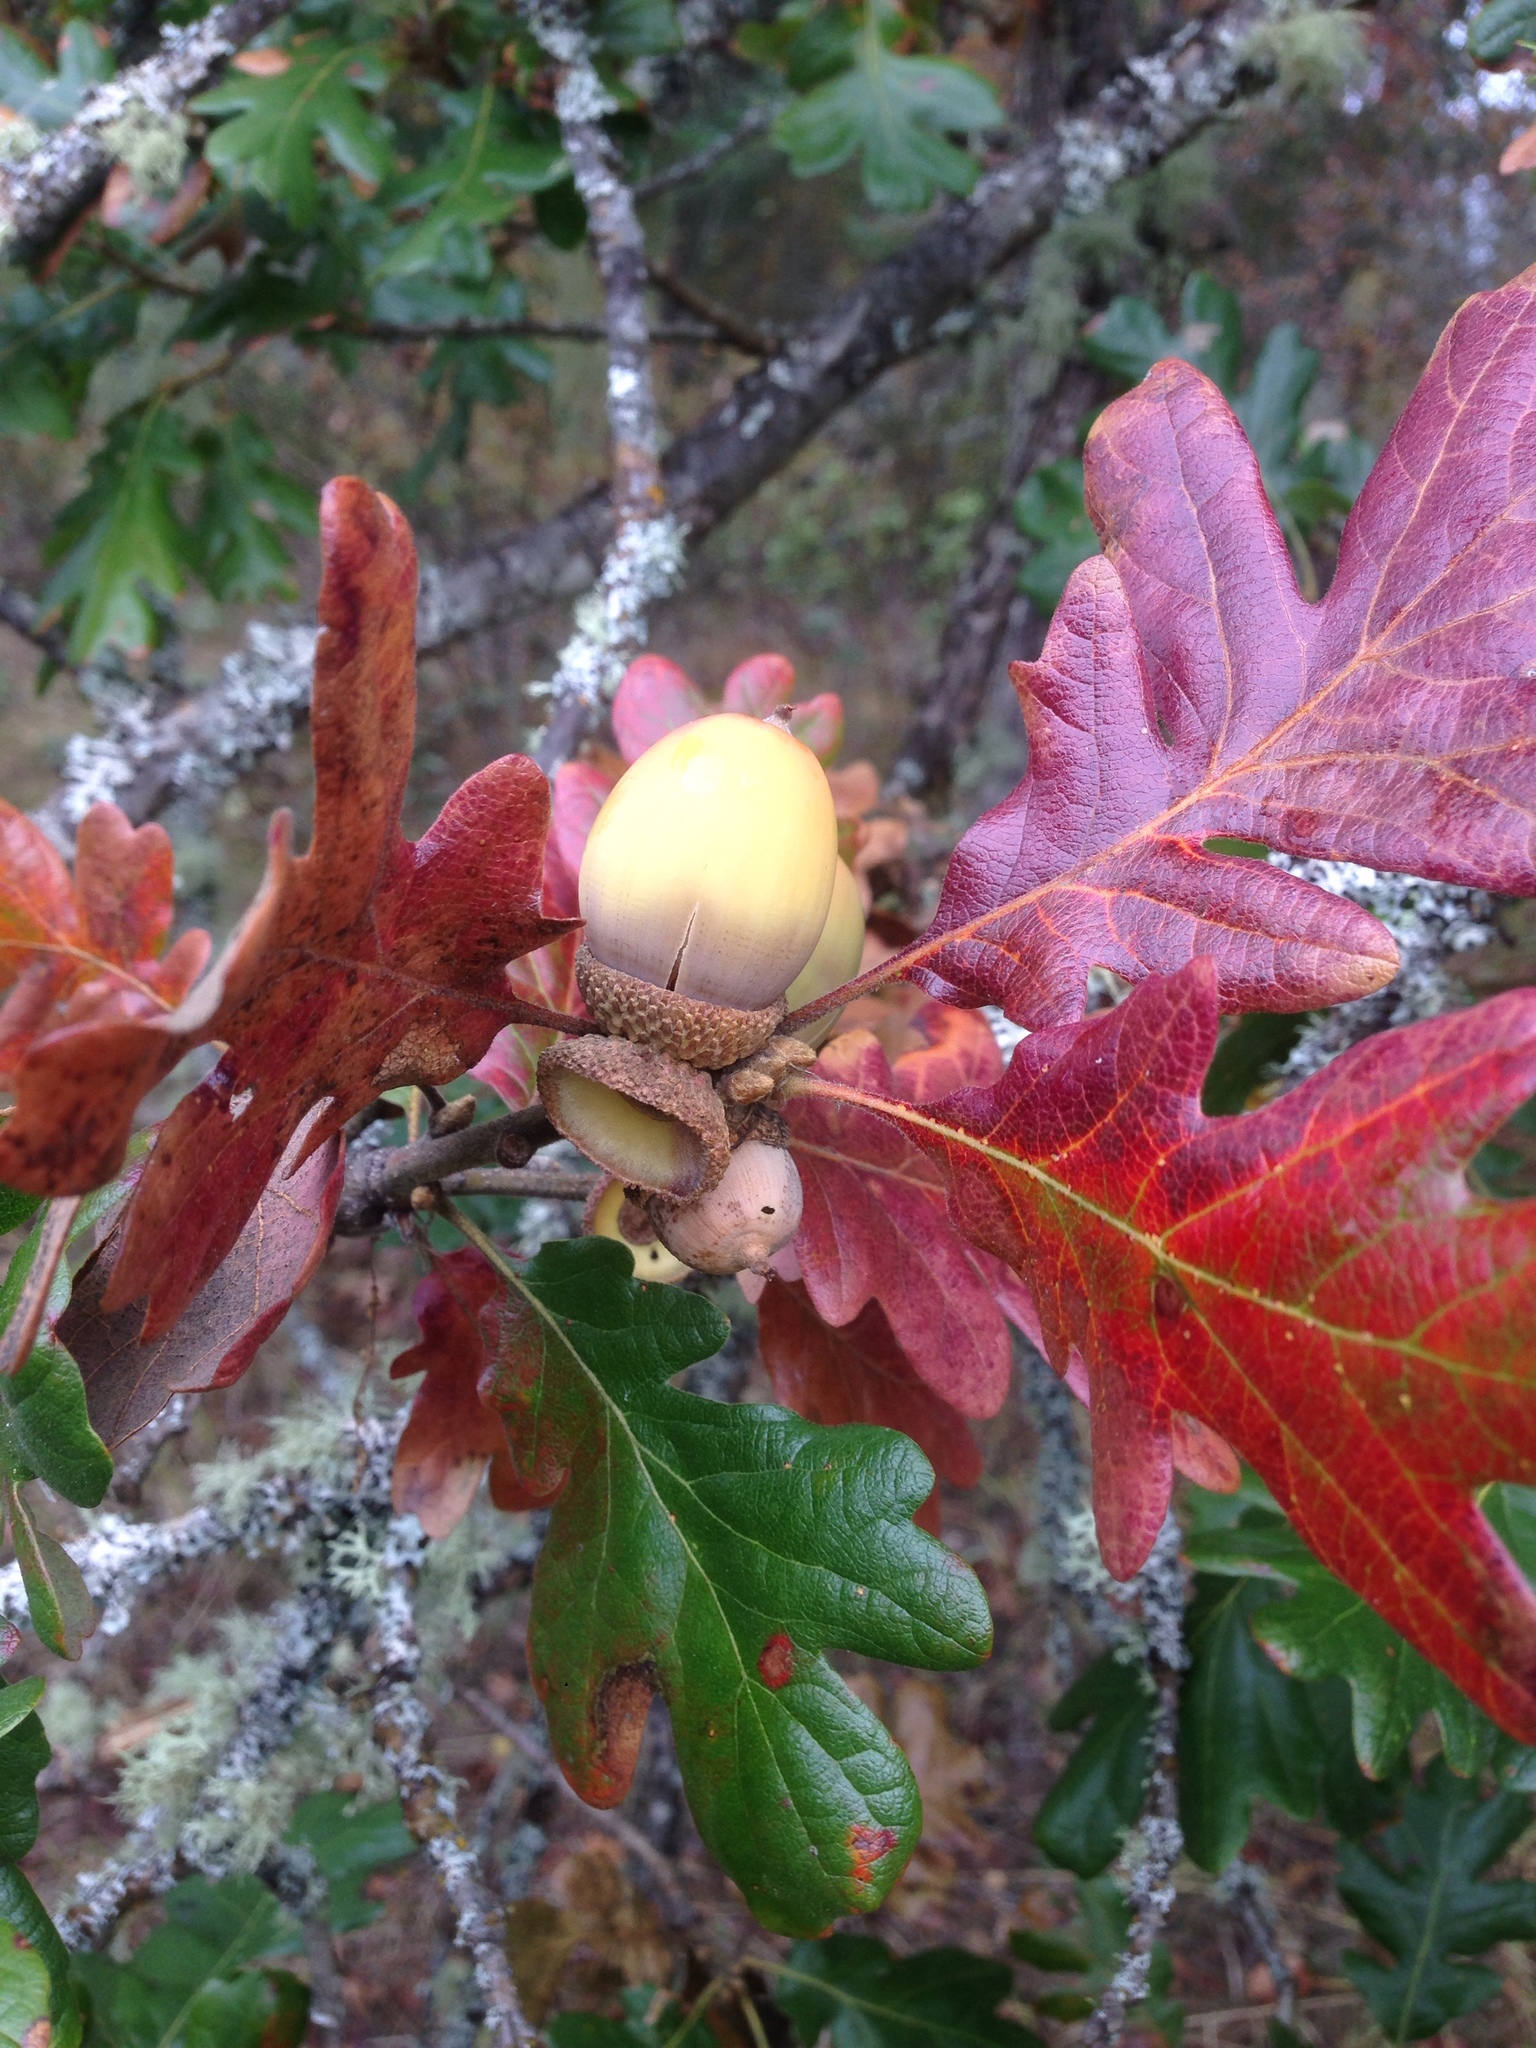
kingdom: Plantae
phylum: Tracheophyta
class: Magnoliopsida
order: Fagales
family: Fagaceae
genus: Quercus
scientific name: Quercus garryana
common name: Garry oak
